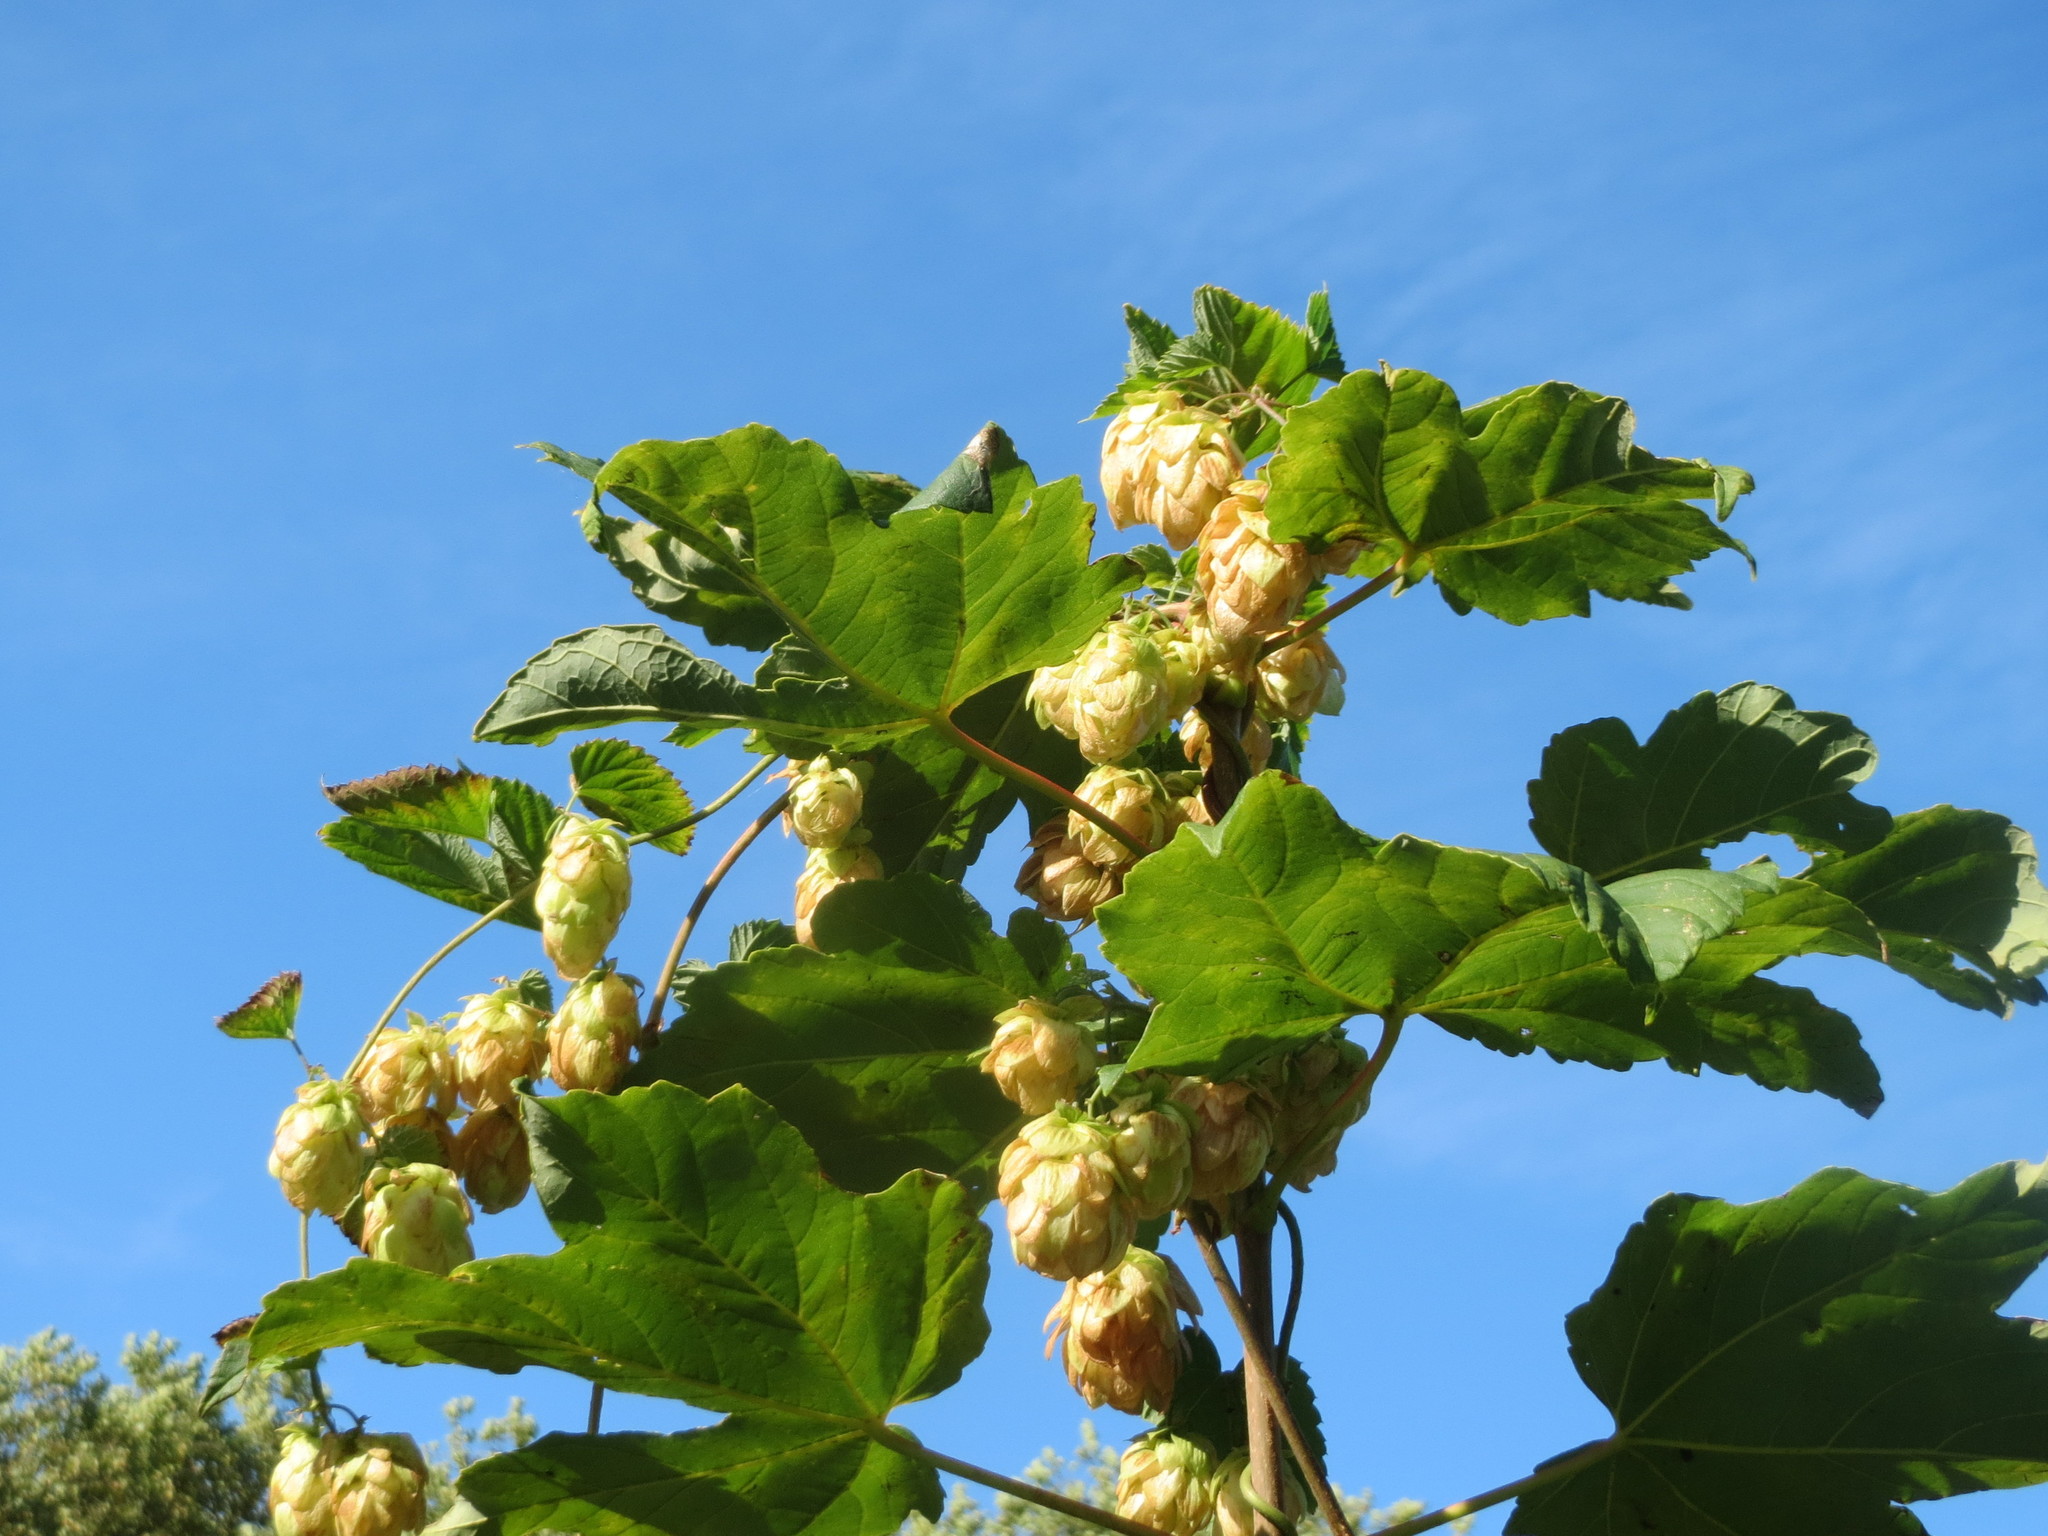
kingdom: Plantae
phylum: Tracheophyta
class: Magnoliopsida
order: Rosales
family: Cannabaceae
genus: Humulus
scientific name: Humulus lupulus
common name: Hop
